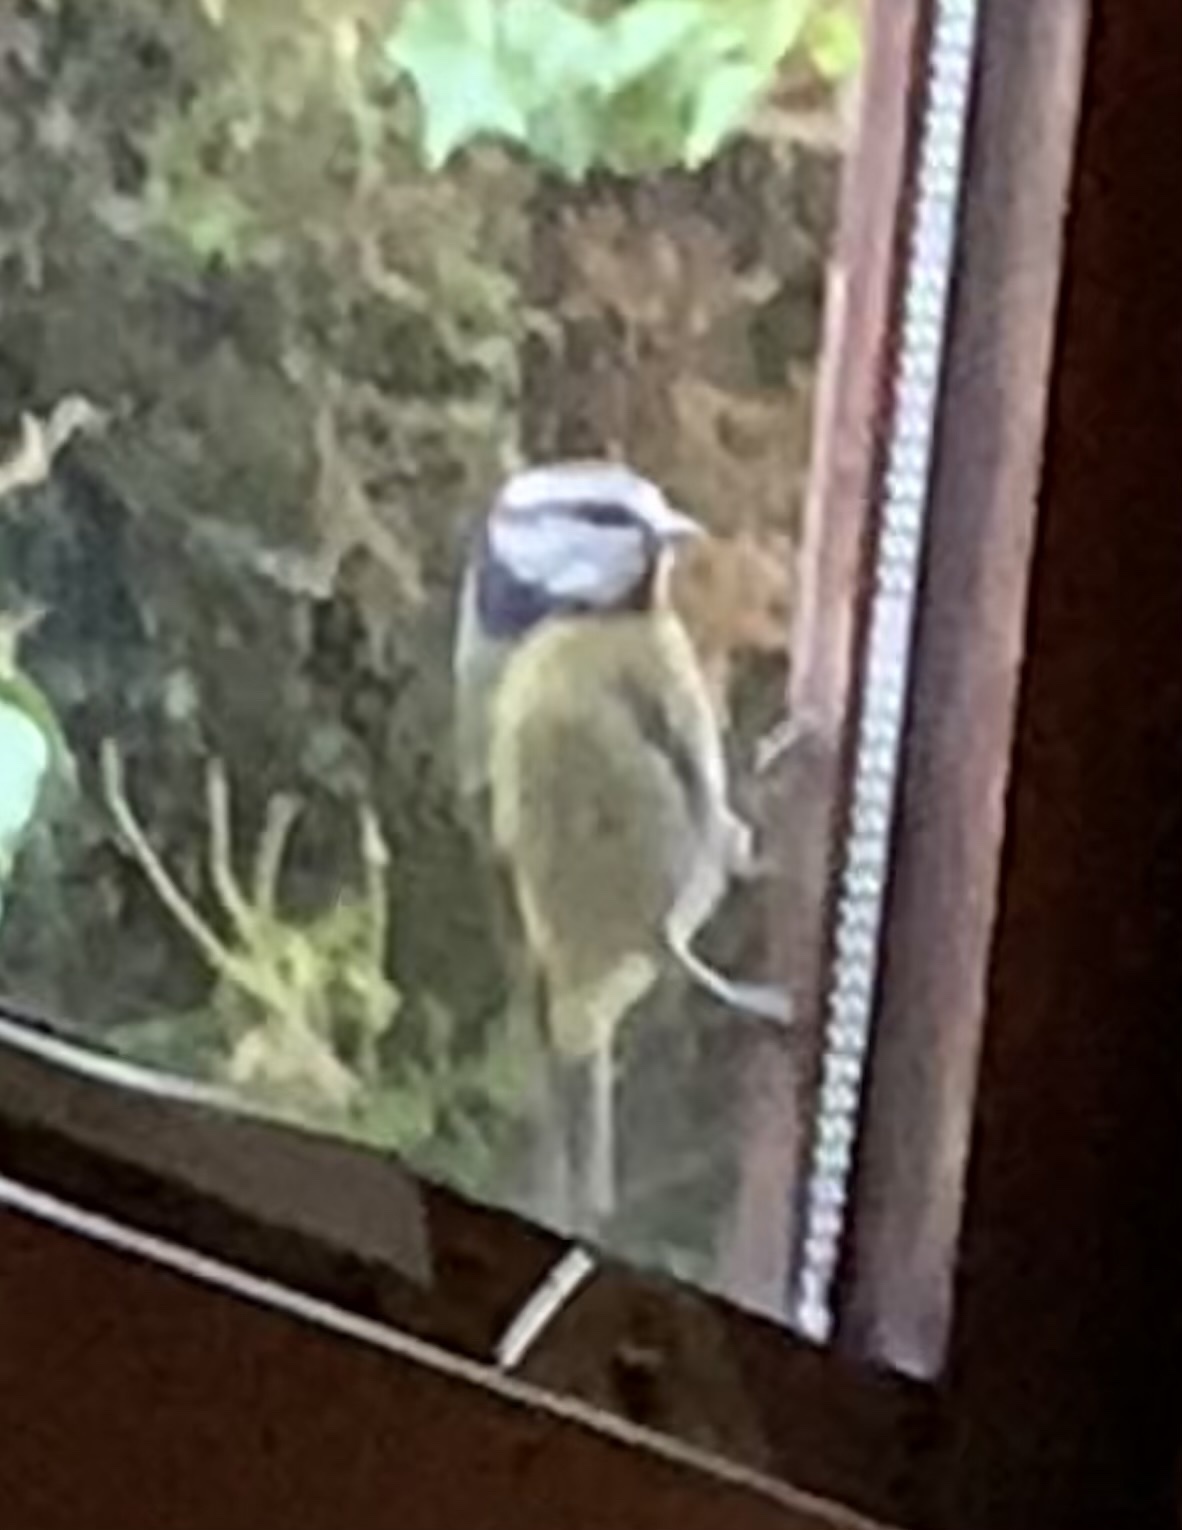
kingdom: Animalia
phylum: Chordata
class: Aves
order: Passeriformes
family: Paridae
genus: Cyanistes
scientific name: Cyanistes caeruleus
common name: Eurasian blue tit
